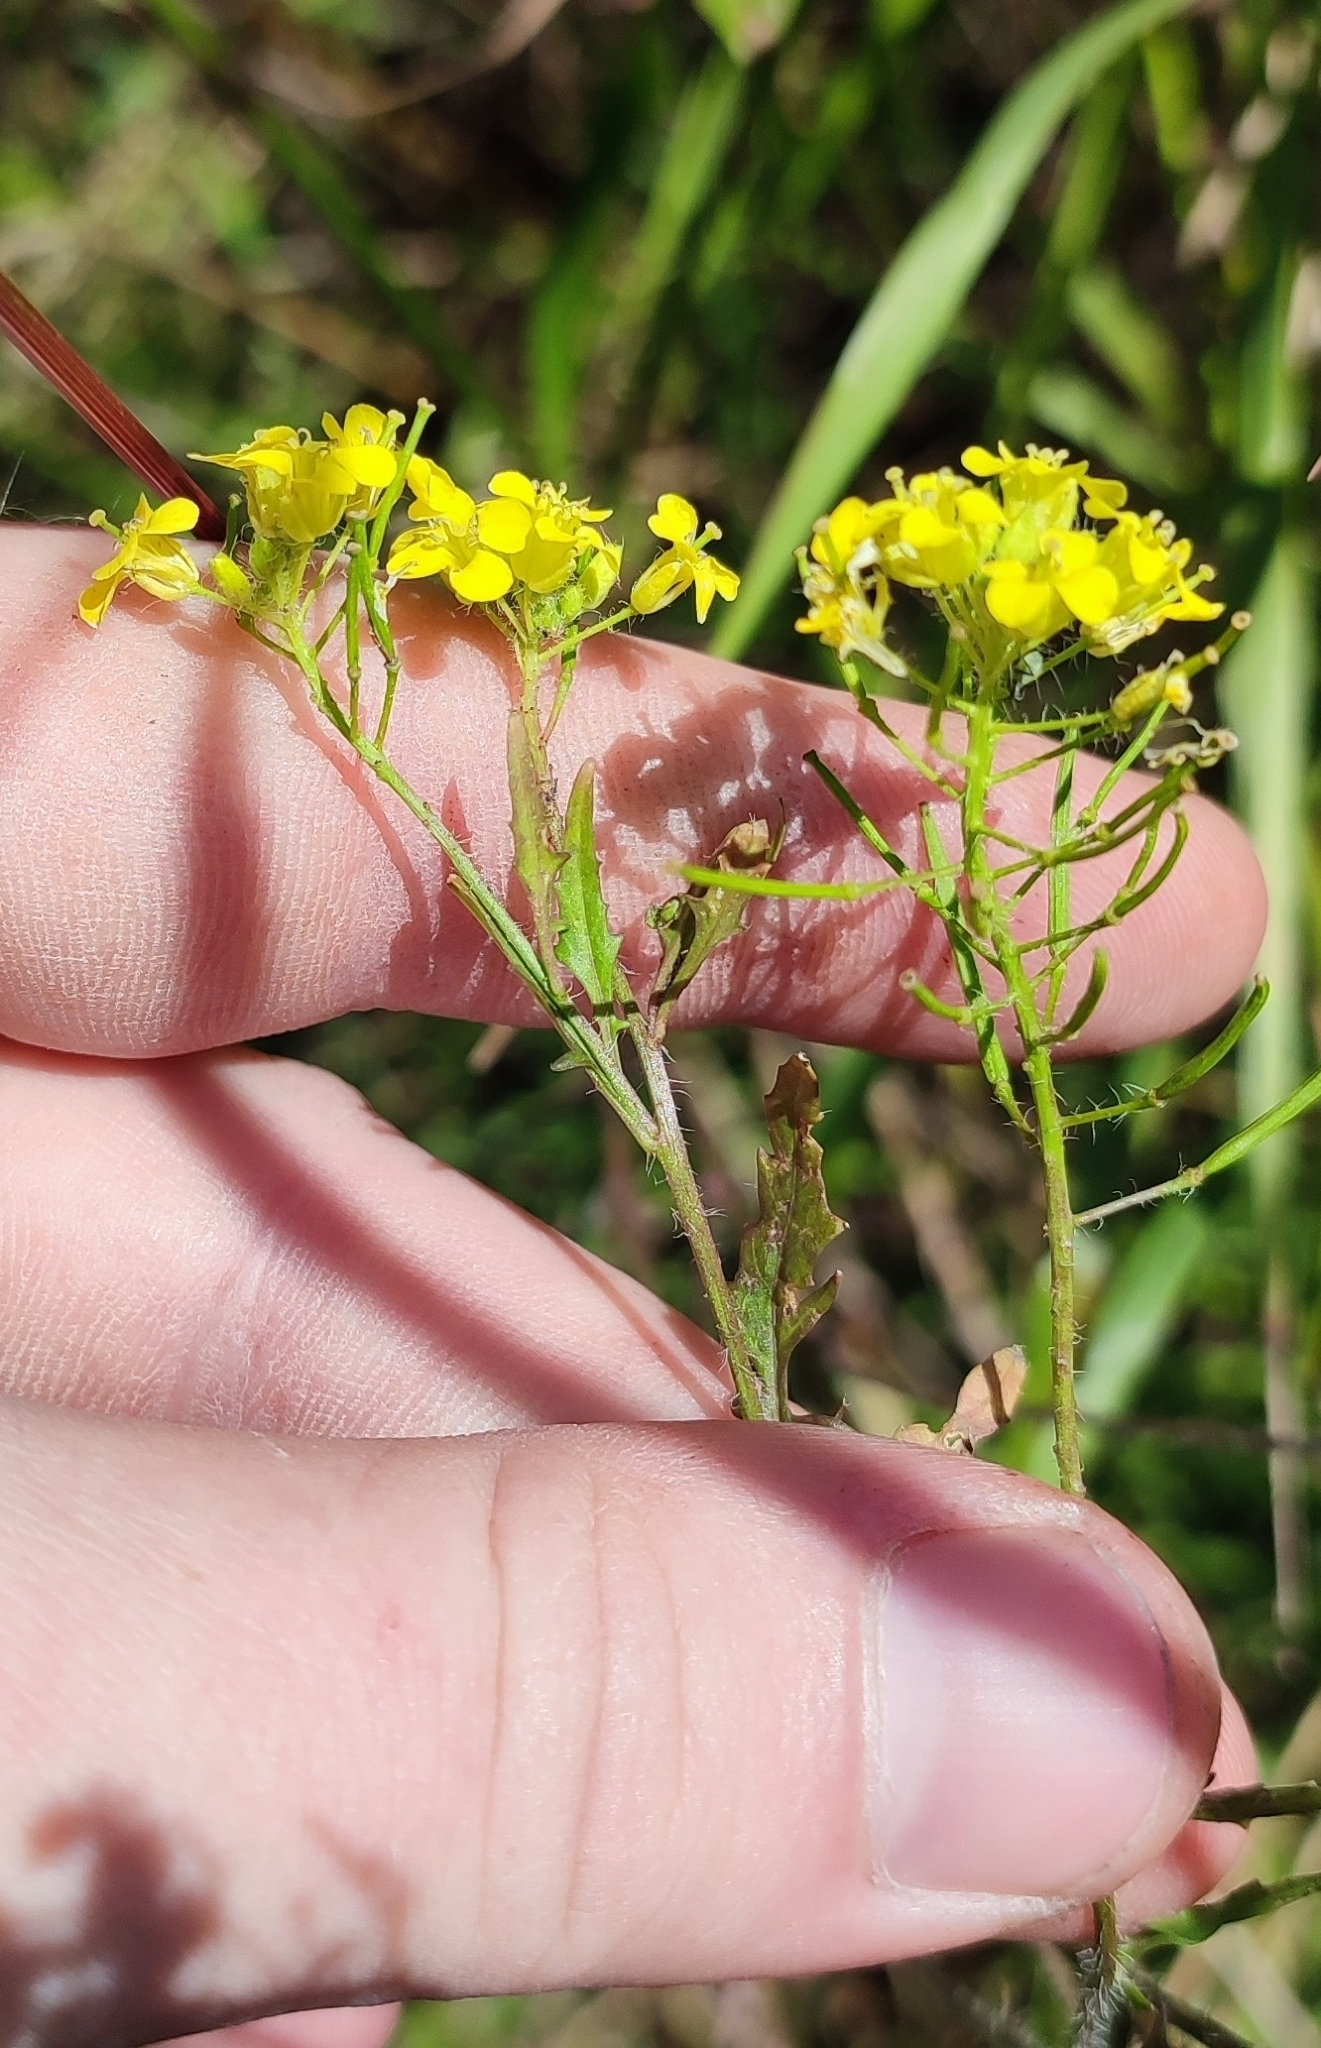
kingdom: Plantae
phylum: Tracheophyta
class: Magnoliopsida
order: Brassicales
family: Brassicaceae
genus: Sisymbrium
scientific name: Sisymbrium loeselii
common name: False london-rocket
